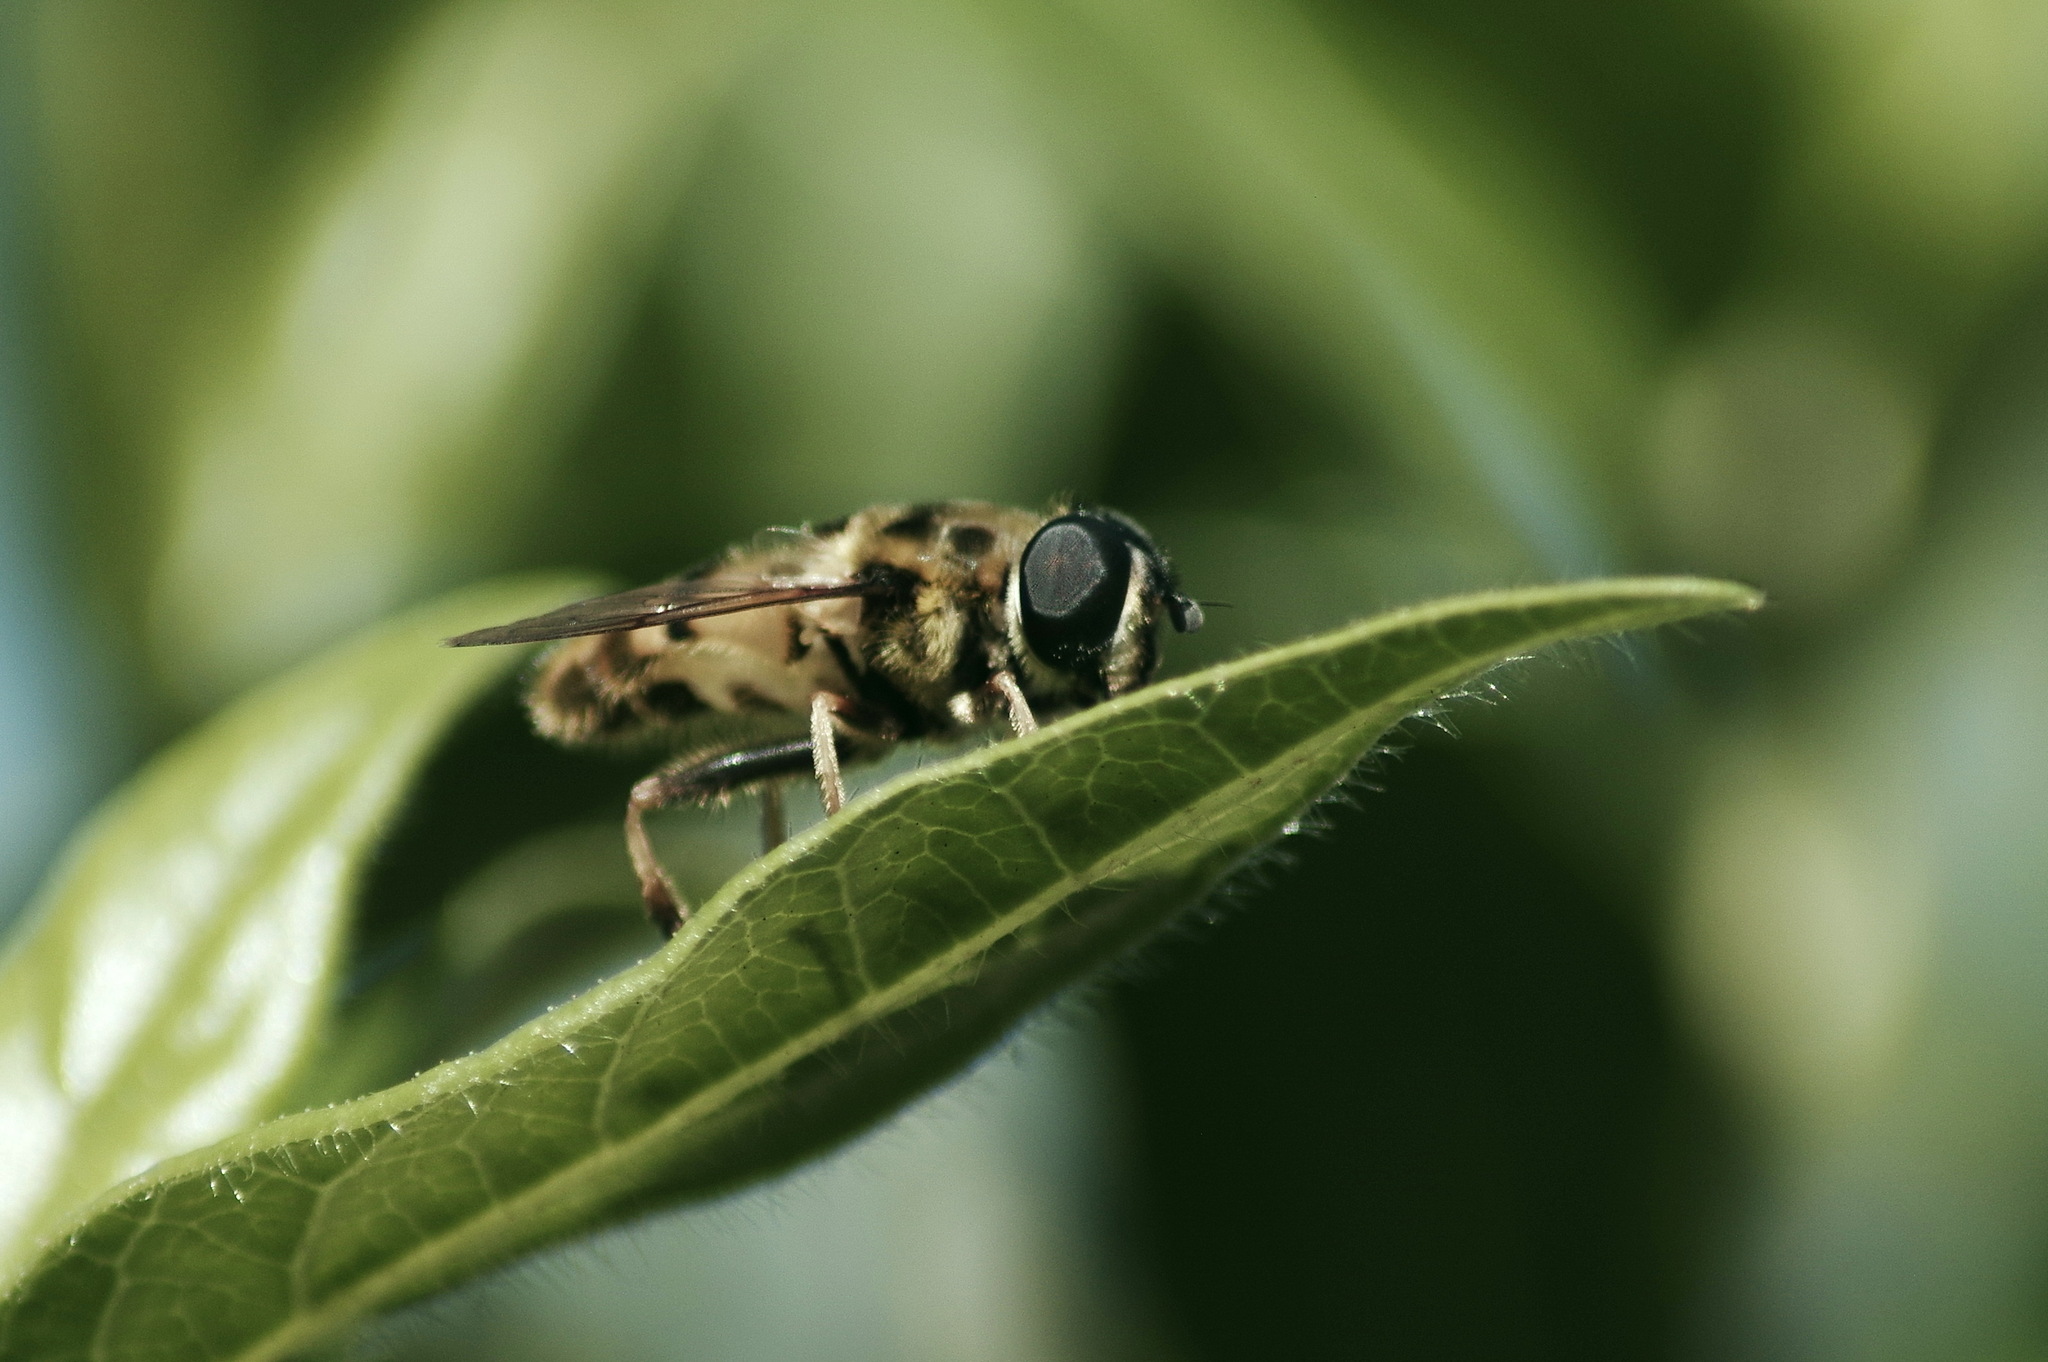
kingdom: Animalia
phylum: Arthropoda
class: Insecta
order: Diptera
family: Syrphidae
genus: Myathropa
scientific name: Myathropa florea
